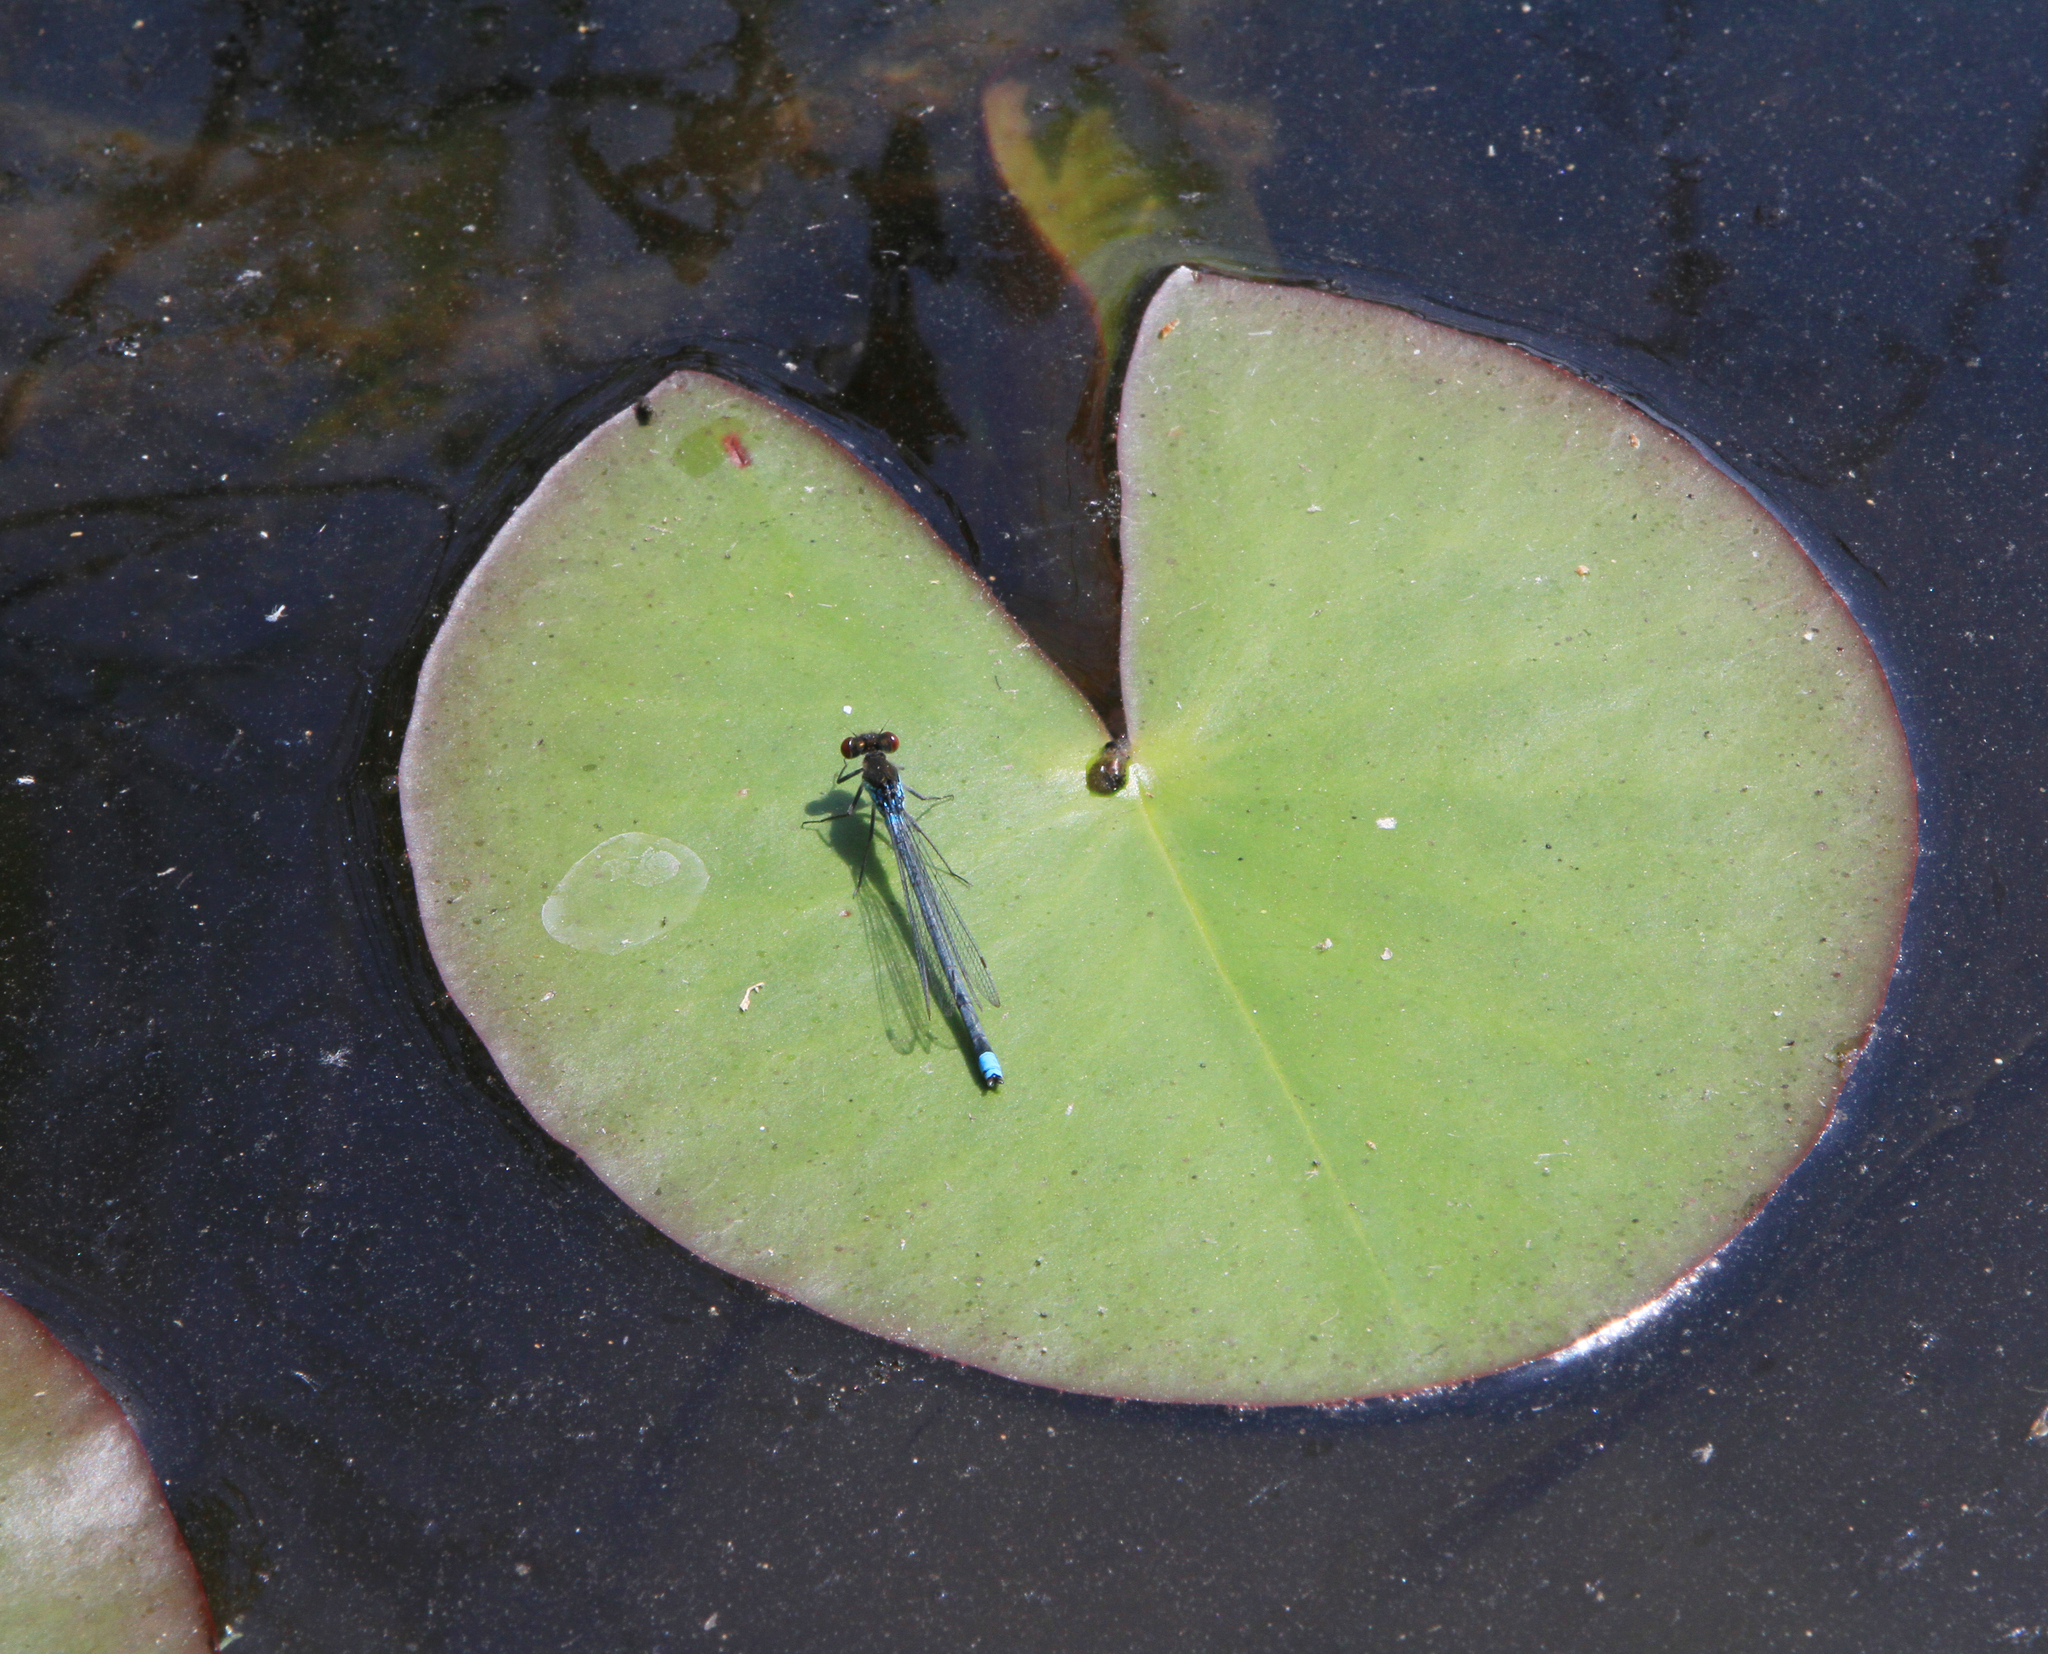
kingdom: Animalia
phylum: Arthropoda
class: Insecta
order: Odonata
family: Coenagrionidae
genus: Erythromma
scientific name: Erythromma najas
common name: Red-eyed damselfly
